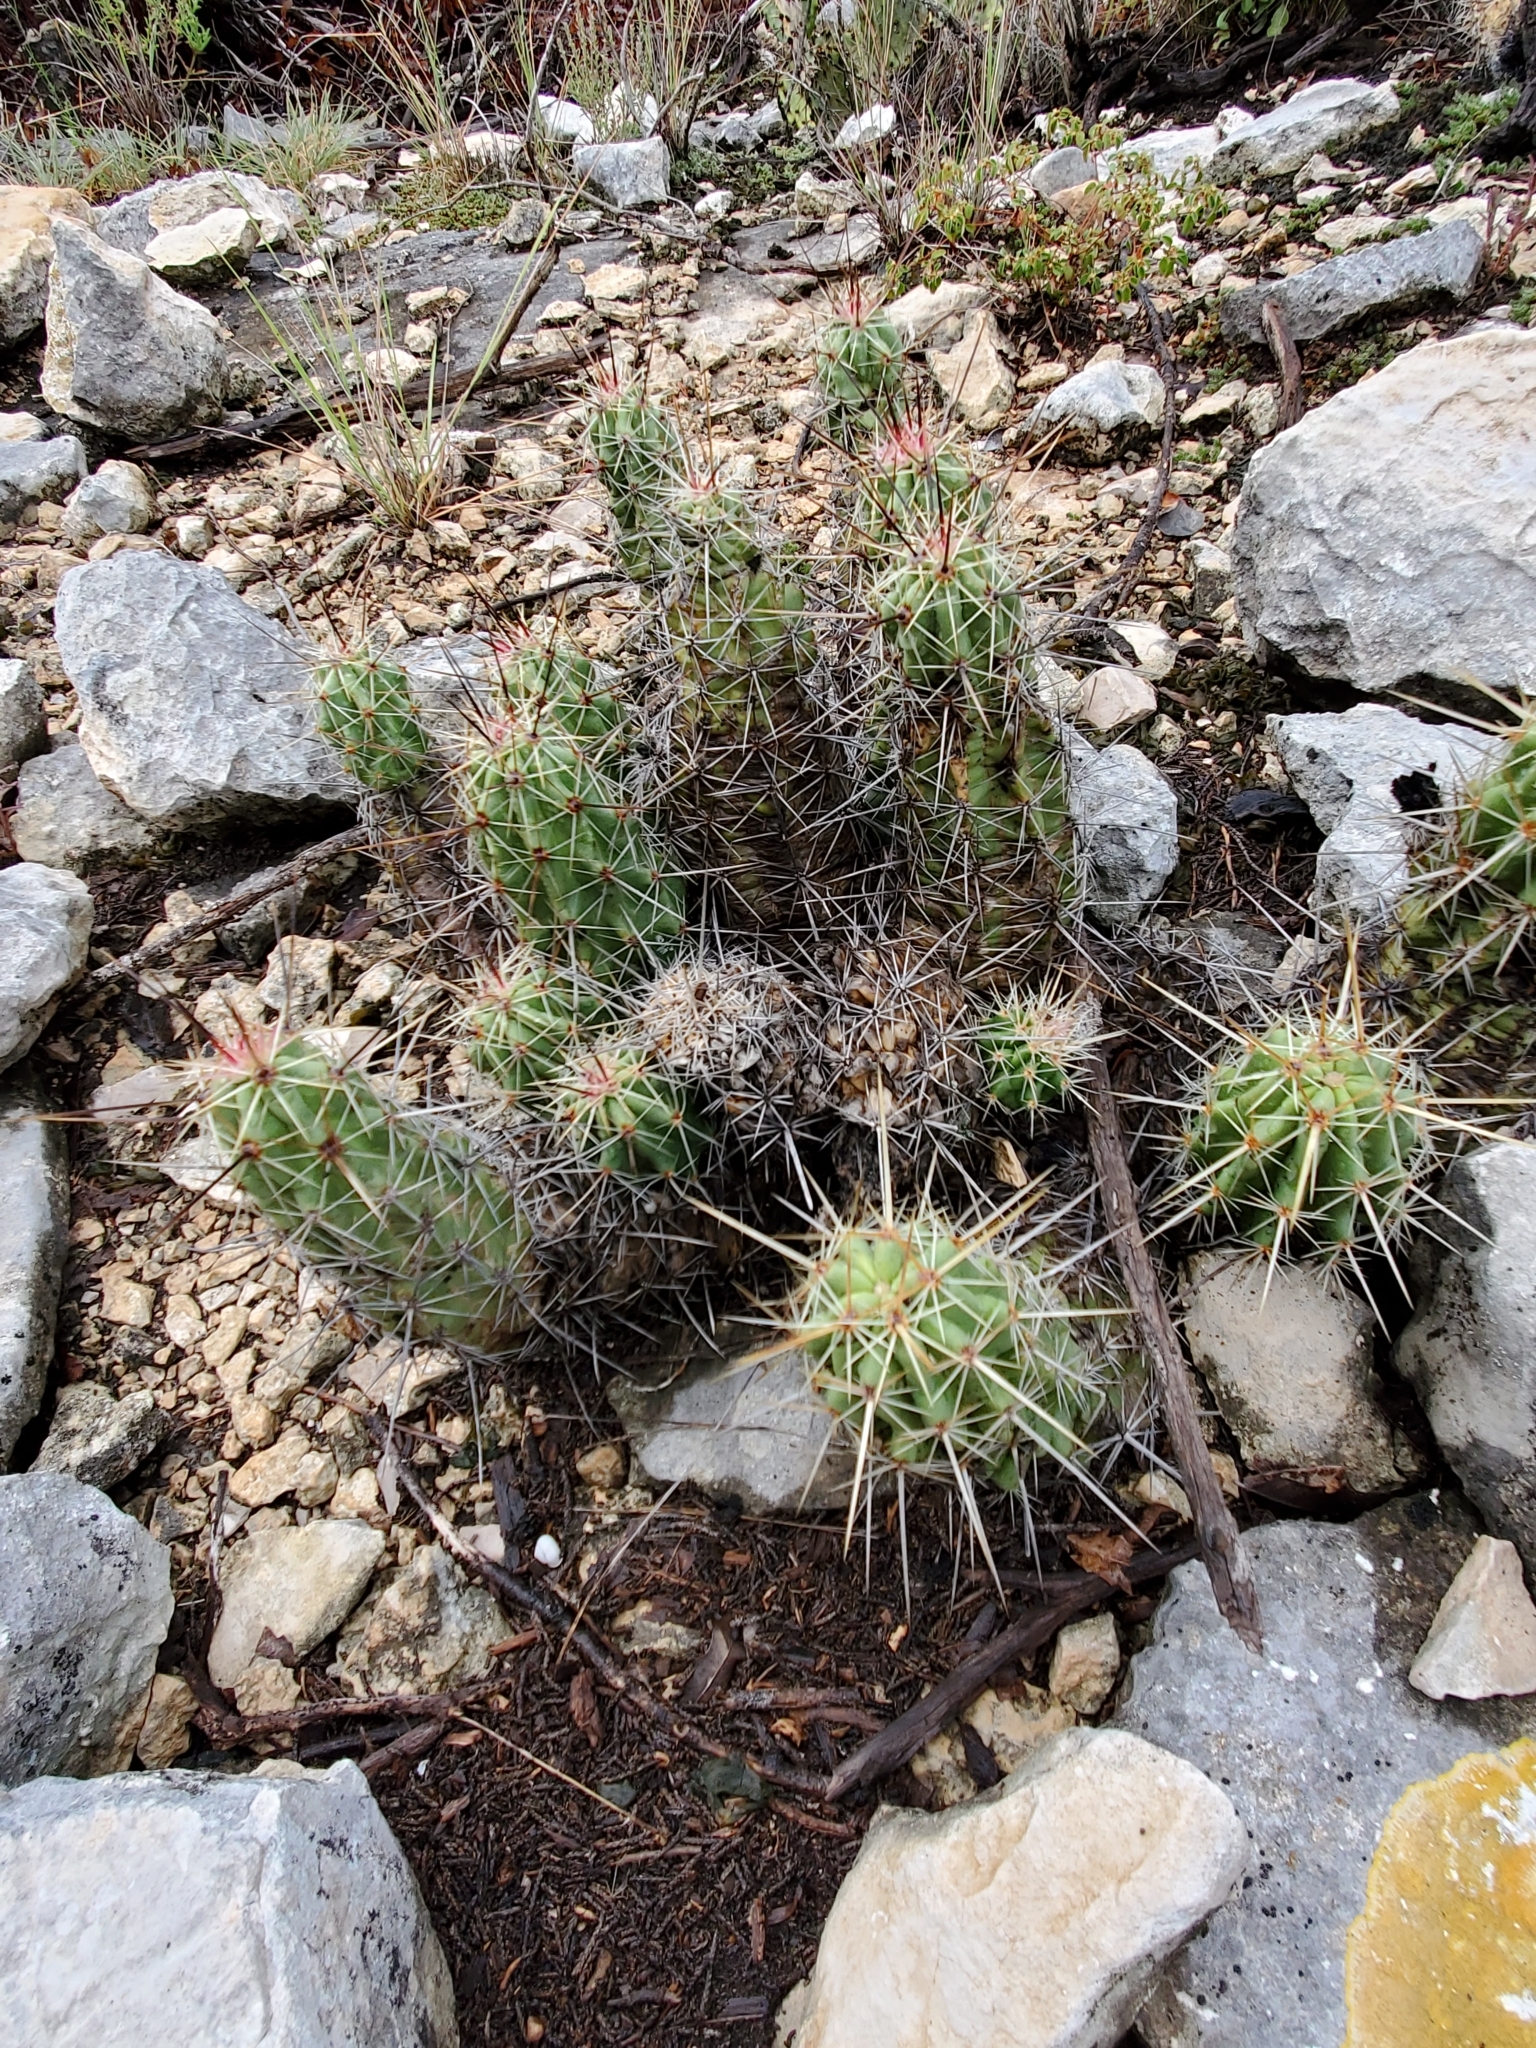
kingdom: Plantae
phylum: Tracheophyta
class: Magnoliopsida
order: Caryophyllales
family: Cactaceae
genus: Echinocereus
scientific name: Echinocereus enneacanthus
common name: Pitaya
